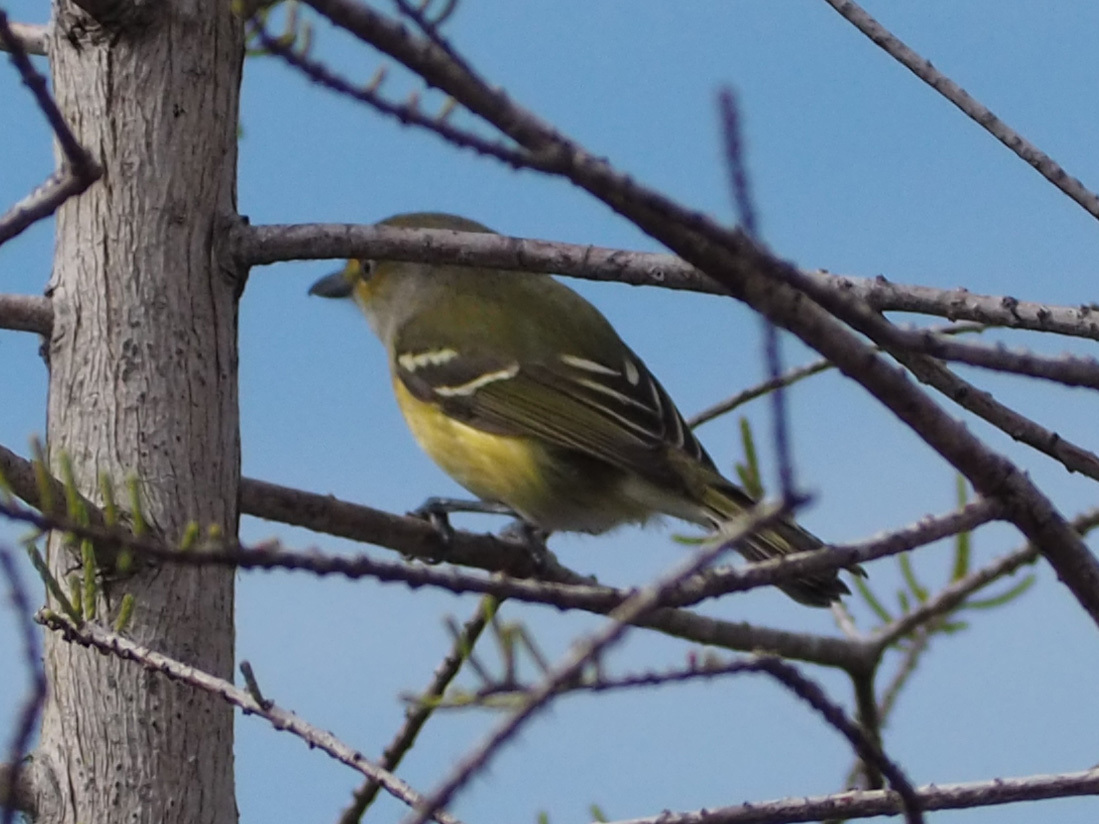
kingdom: Animalia
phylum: Chordata
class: Aves
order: Passeriformes
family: Vireonidae
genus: Vireo
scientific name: Vireo griseus
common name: White-eyed vireo
